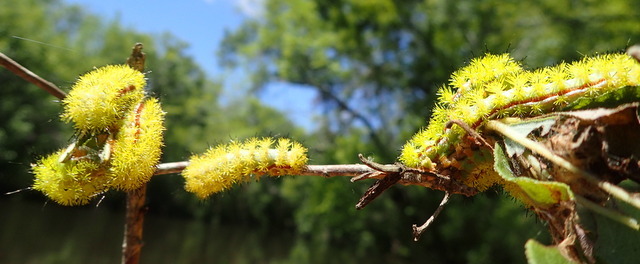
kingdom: Animalia
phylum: Arthropoda
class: Insecta
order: Lepidoptera
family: Saturniidae
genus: Automeris
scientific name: Automeris io
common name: Io moth
